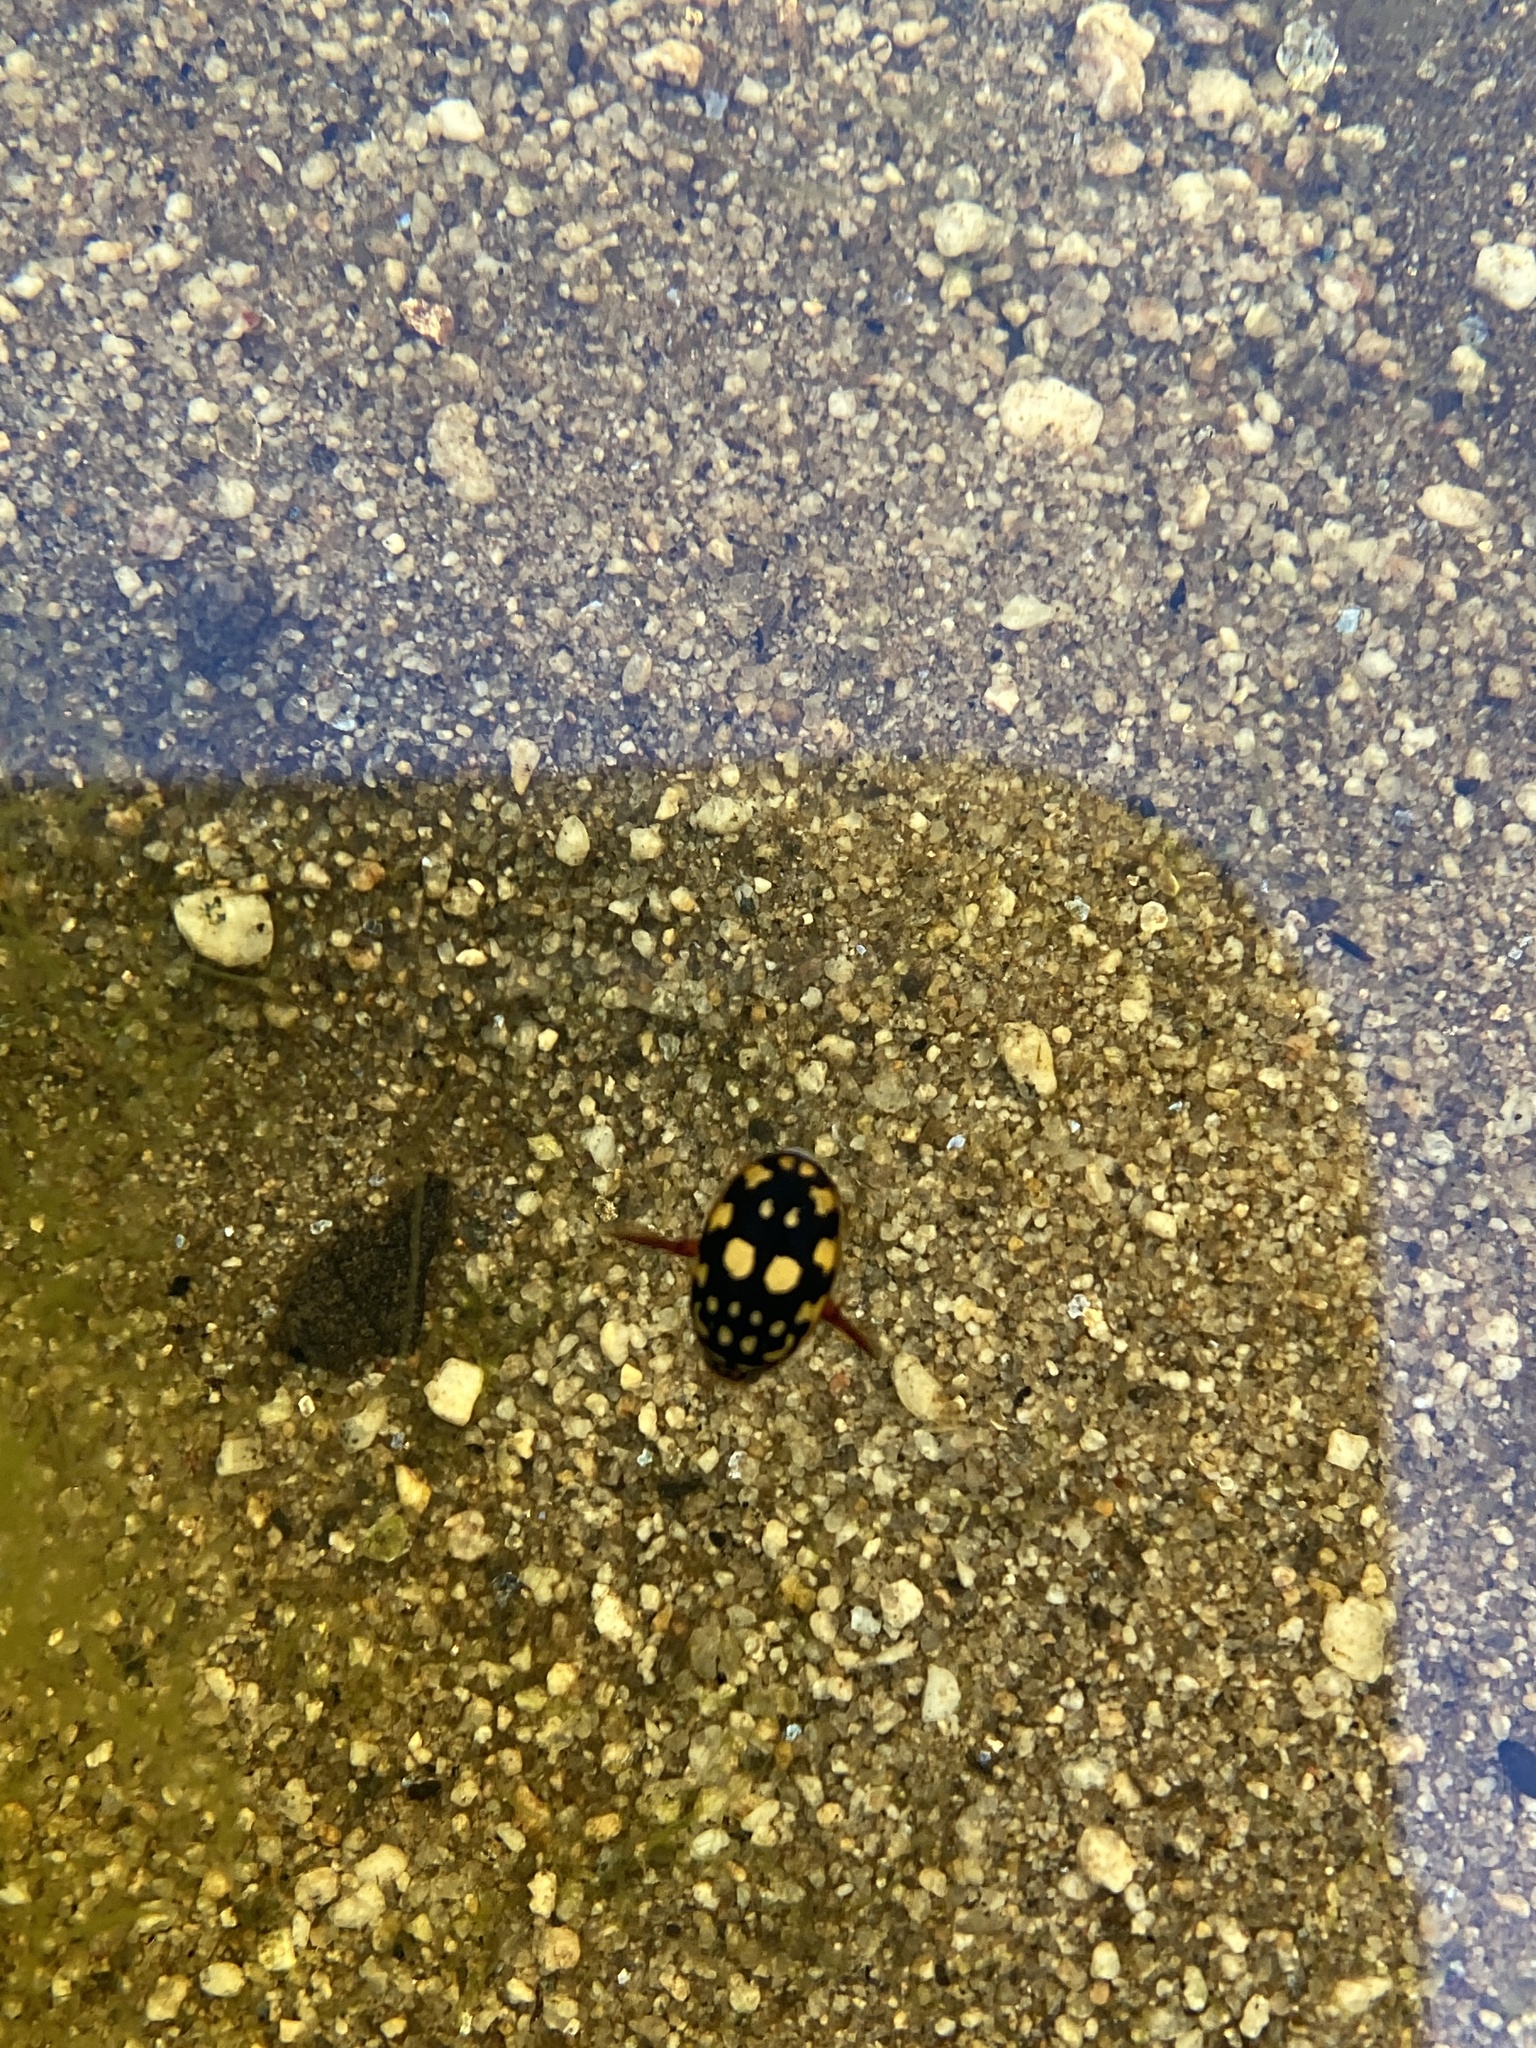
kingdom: Animalia
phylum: Arthropoda
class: Insecta
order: Coleoptera
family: Dytiscidae
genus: Thermonectus
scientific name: Thermonectus marmoratus
